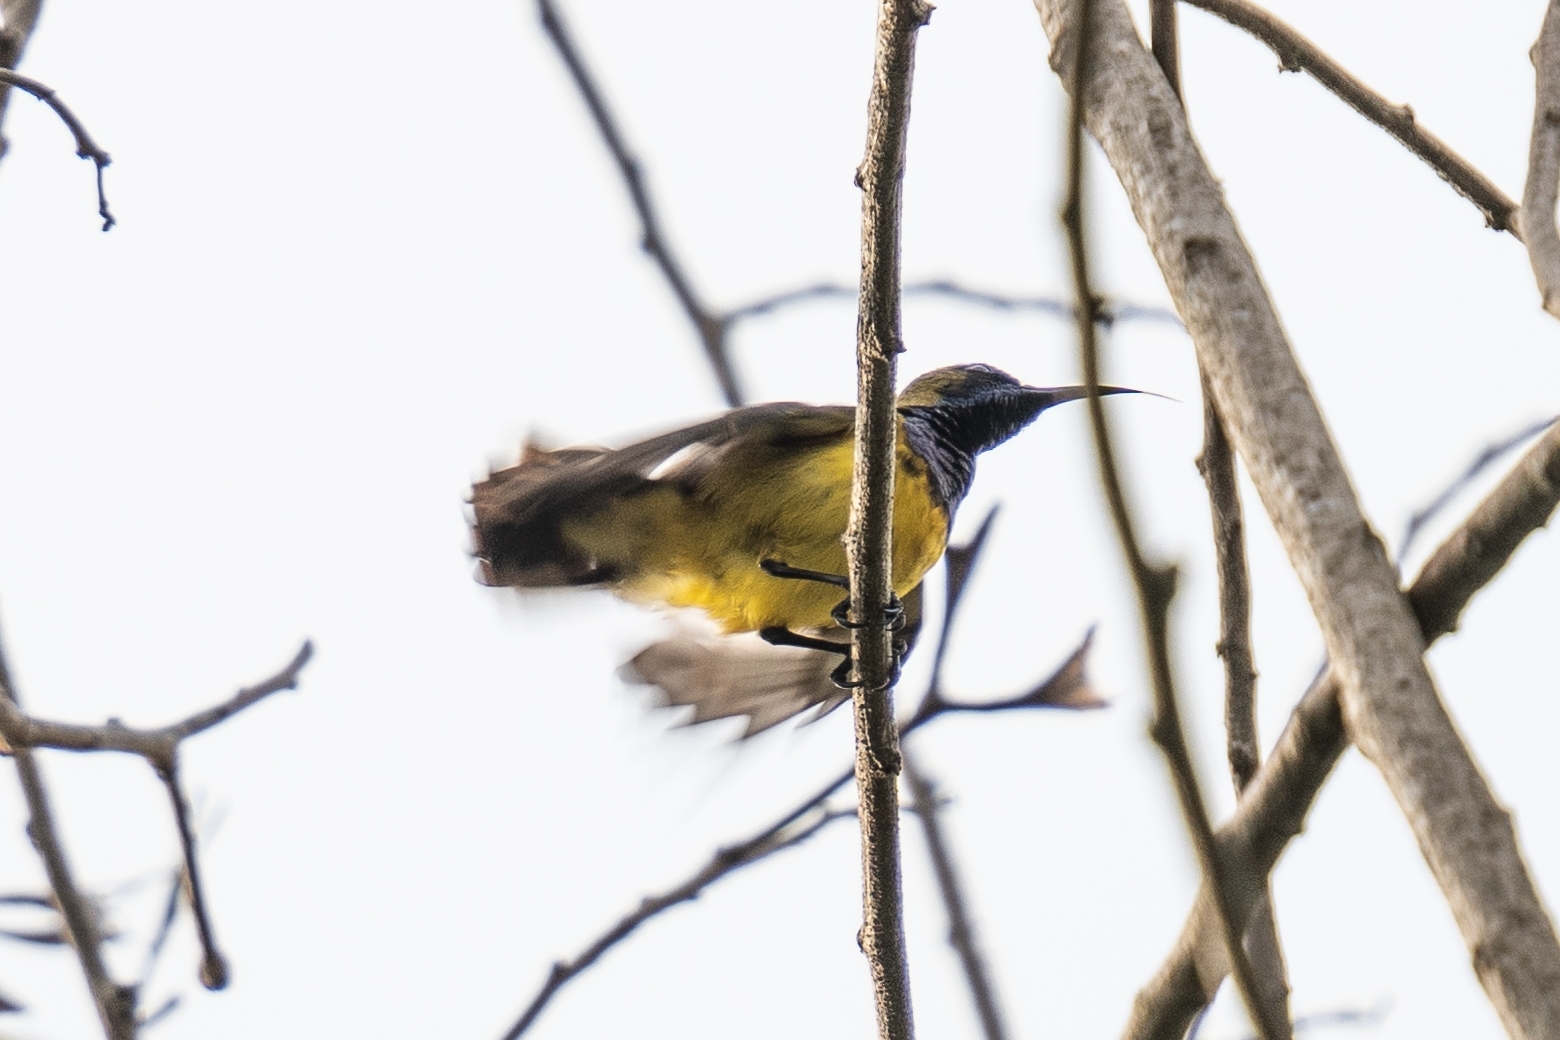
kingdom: Animalia
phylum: Chordata
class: Aves
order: Passeriformes
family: Nectariniidae
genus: Cinnyris
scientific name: Cinnyris
